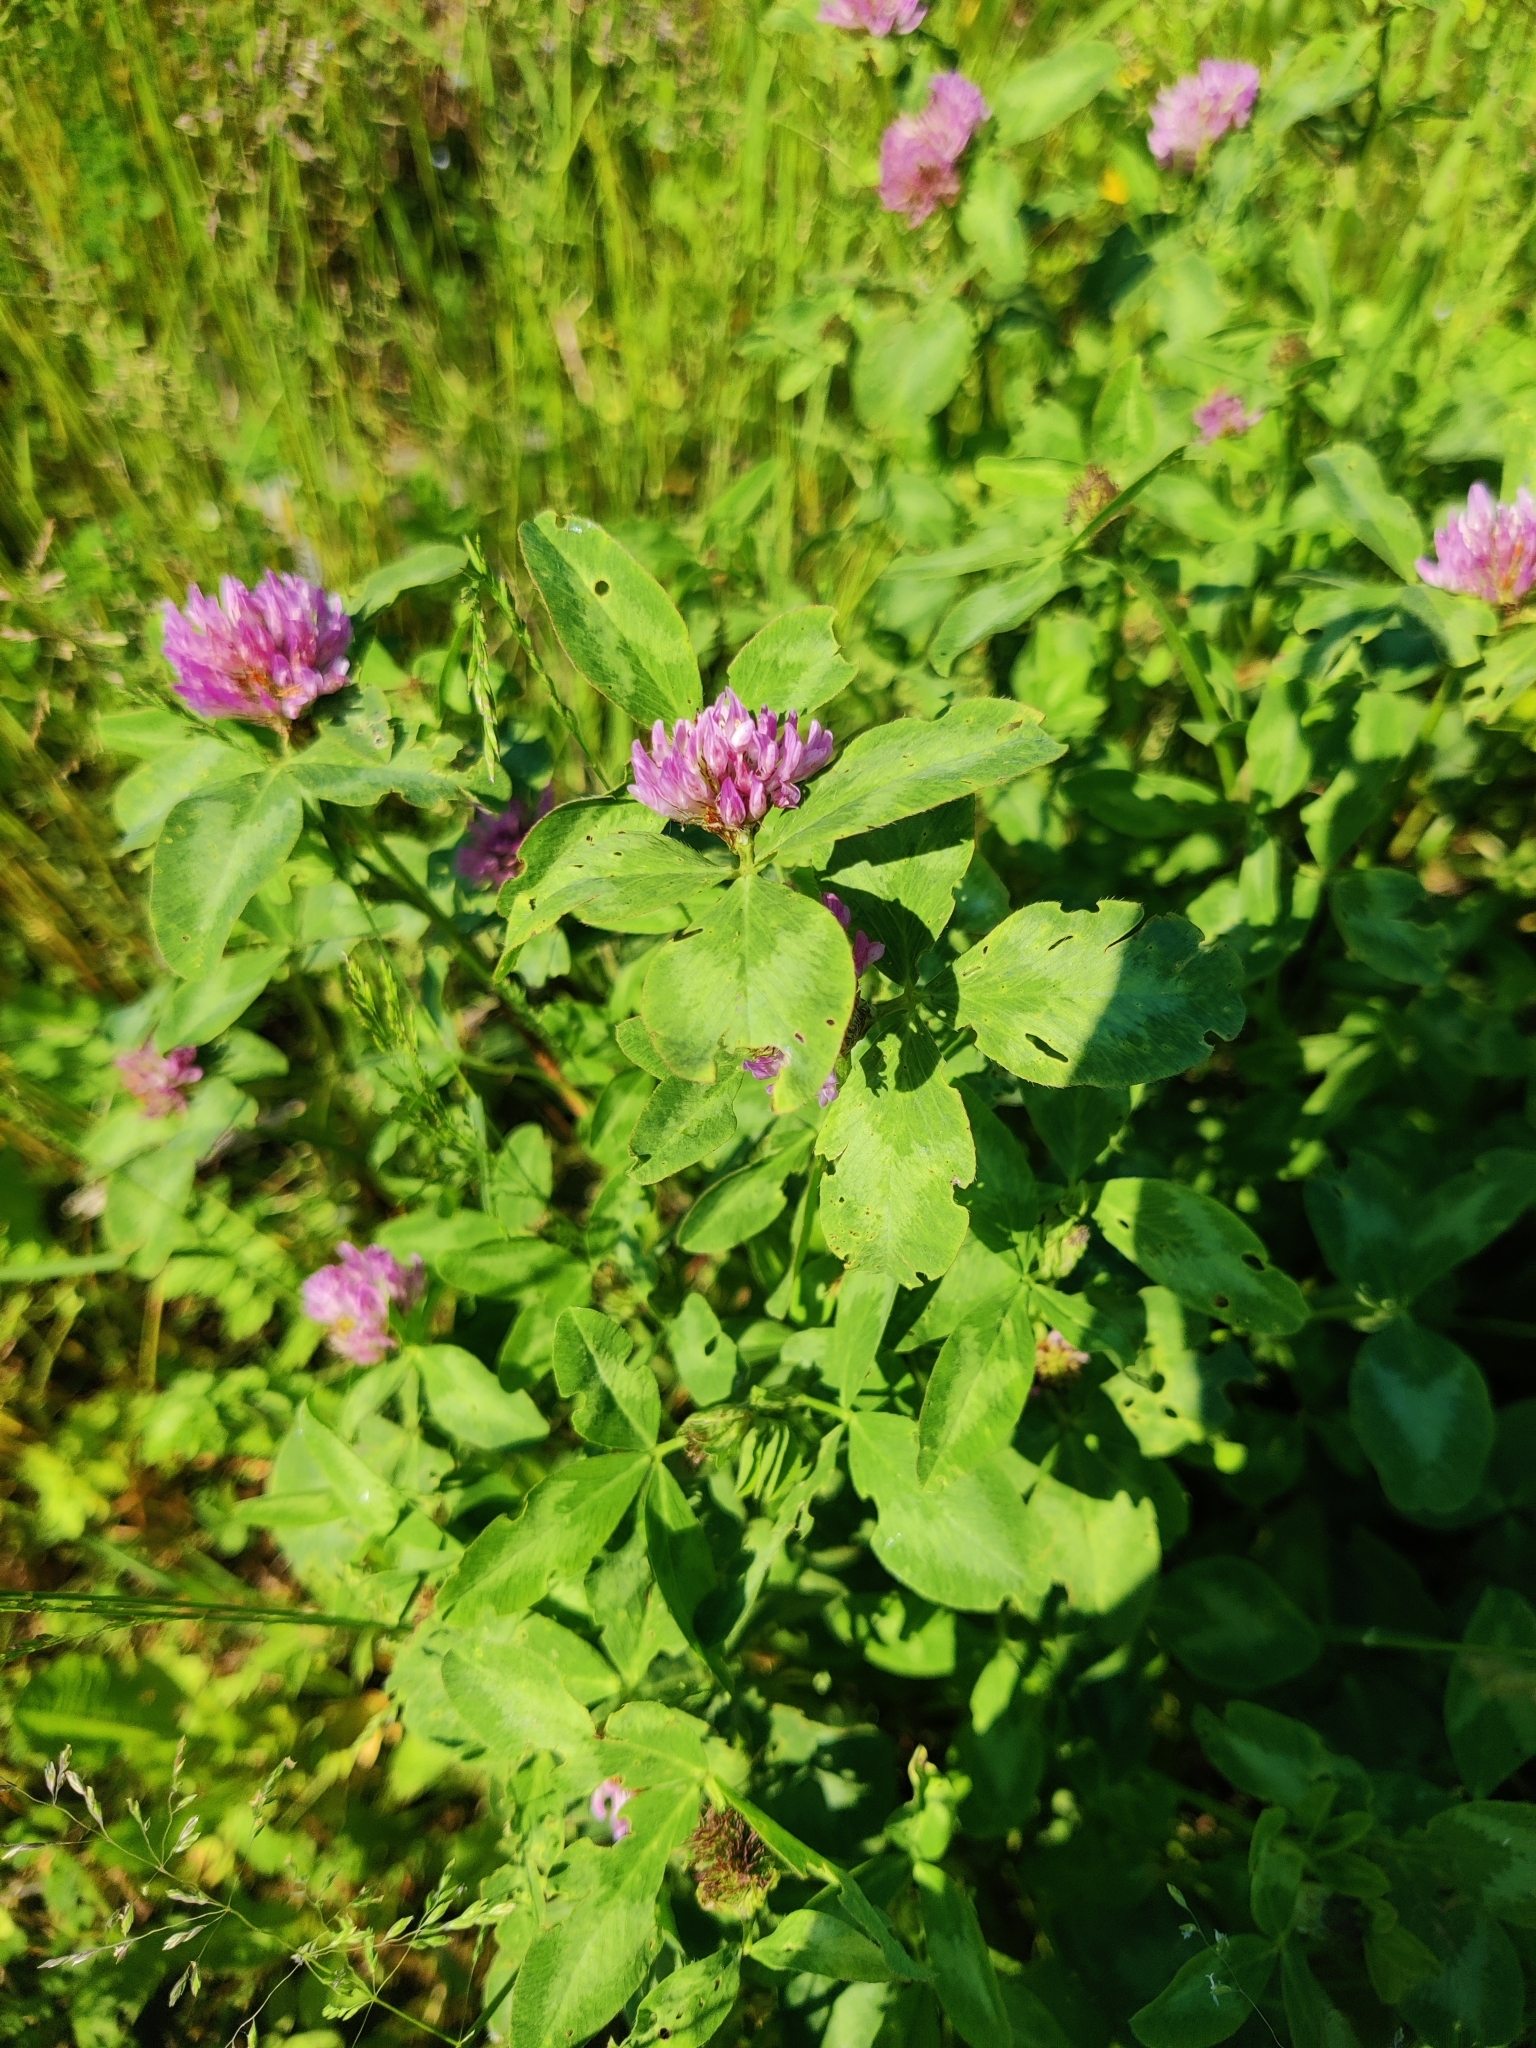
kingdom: Plantae
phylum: Tracheophyta
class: Magnoliopsida
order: Fabales
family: Fabaceae
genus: Trifolium
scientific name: Trifolium pratense
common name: Red clover
